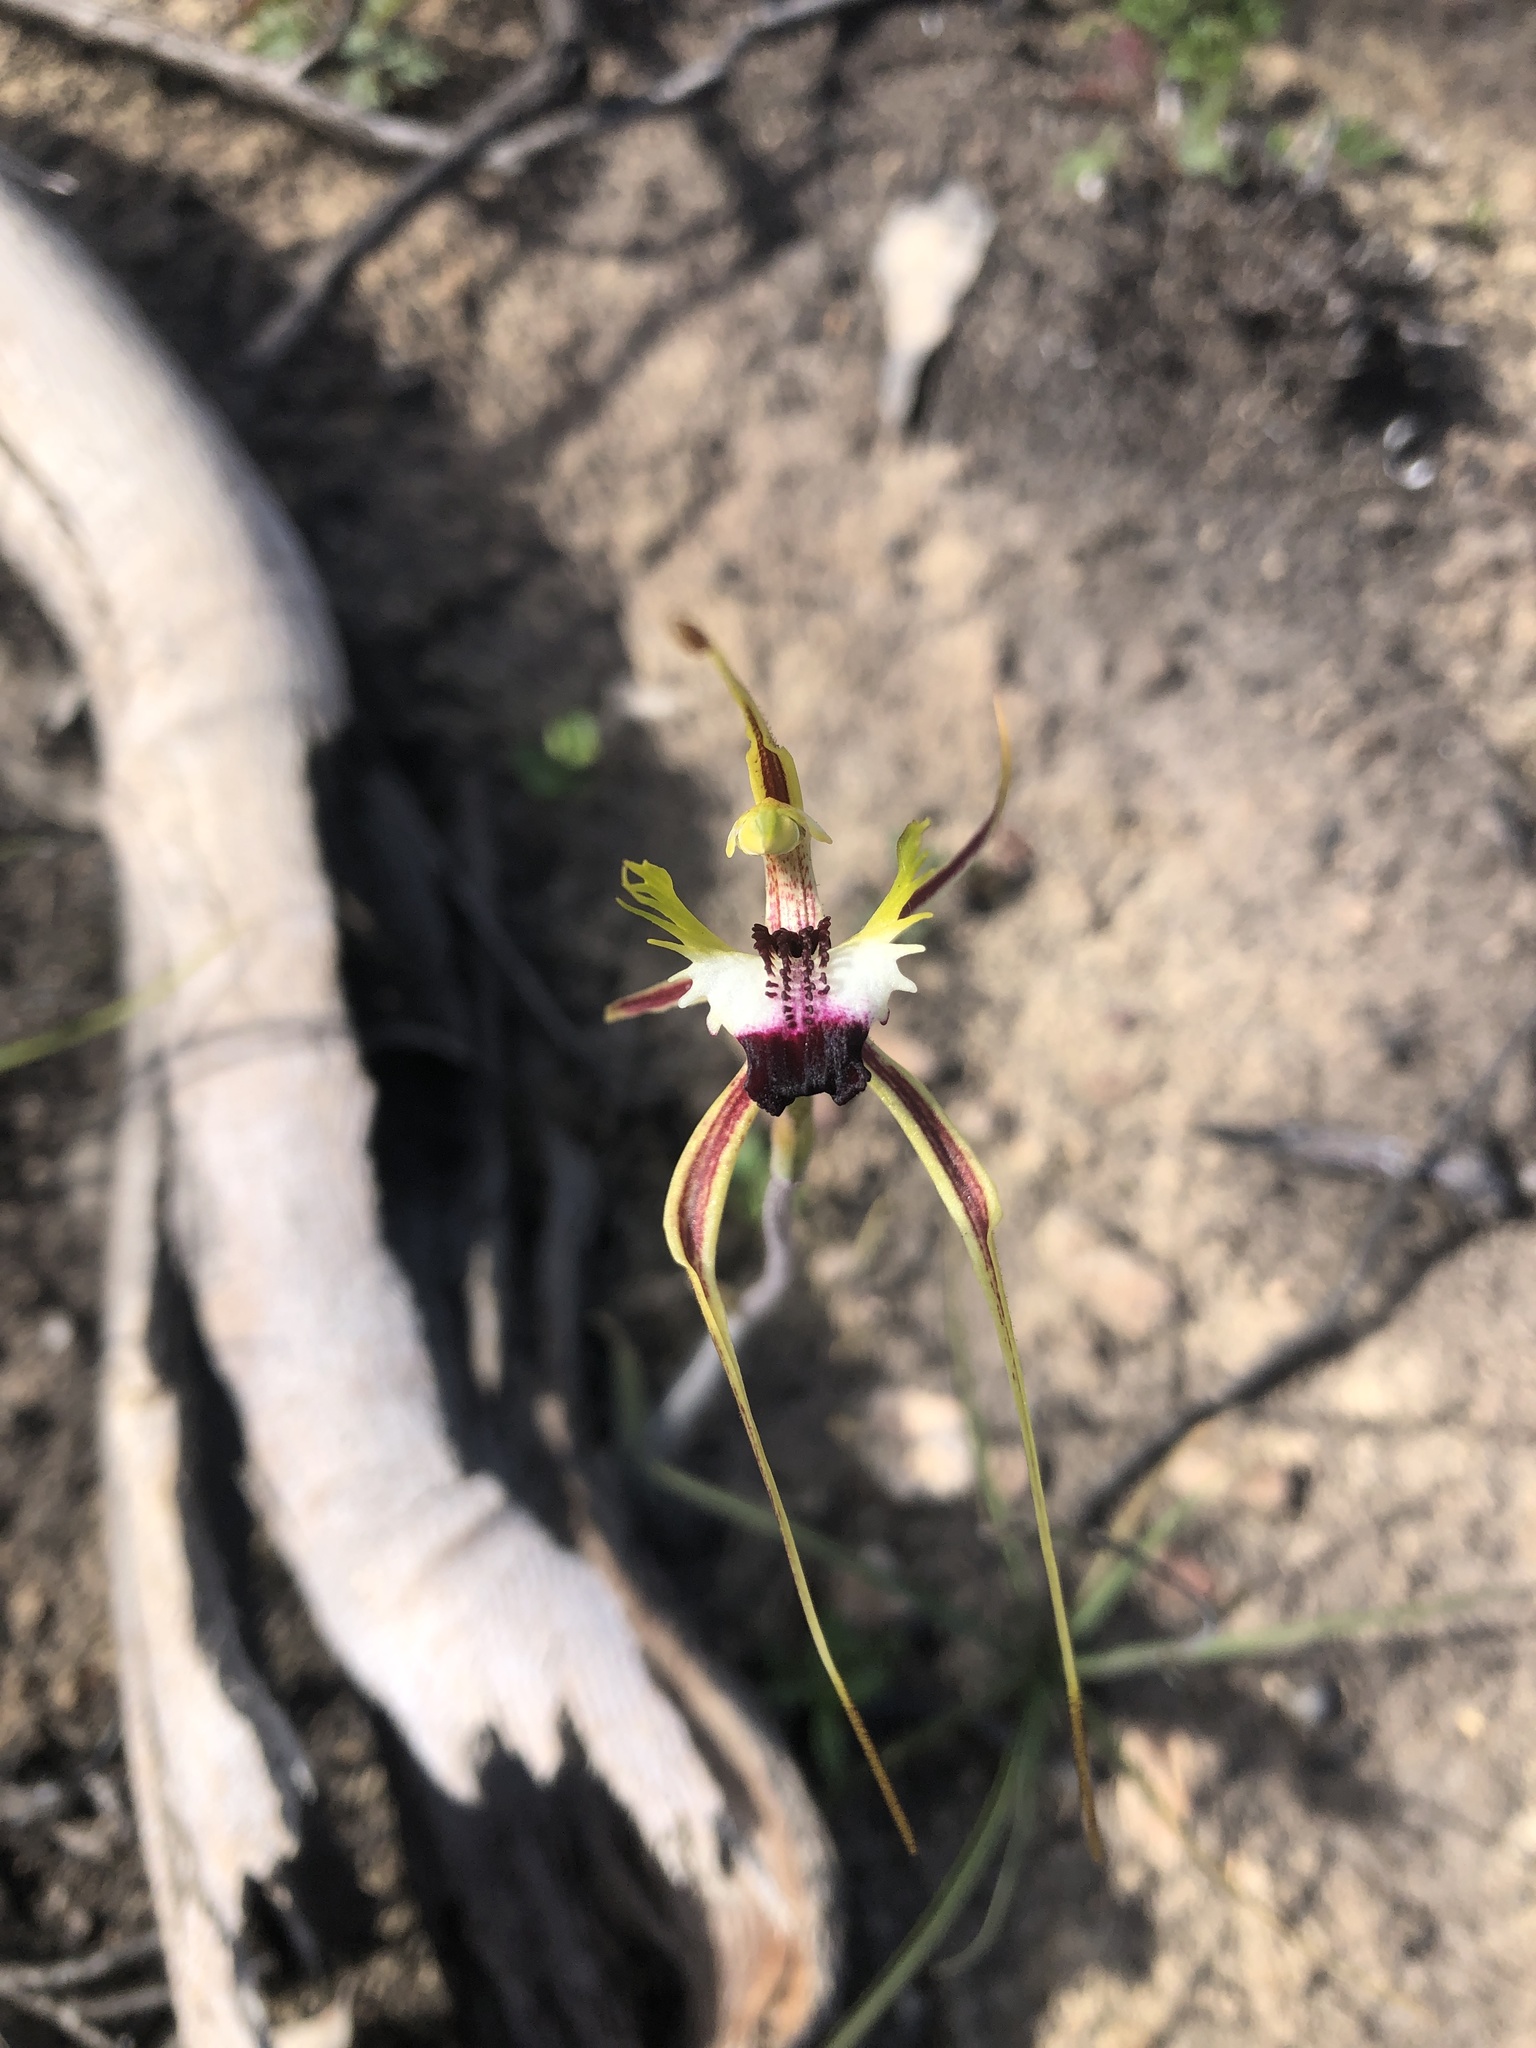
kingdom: Plantae
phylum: Tracheophyta
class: Liliopsida
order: Asparagales
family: Orchidaceae
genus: Caladenia
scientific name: Caladenia tentaculata
